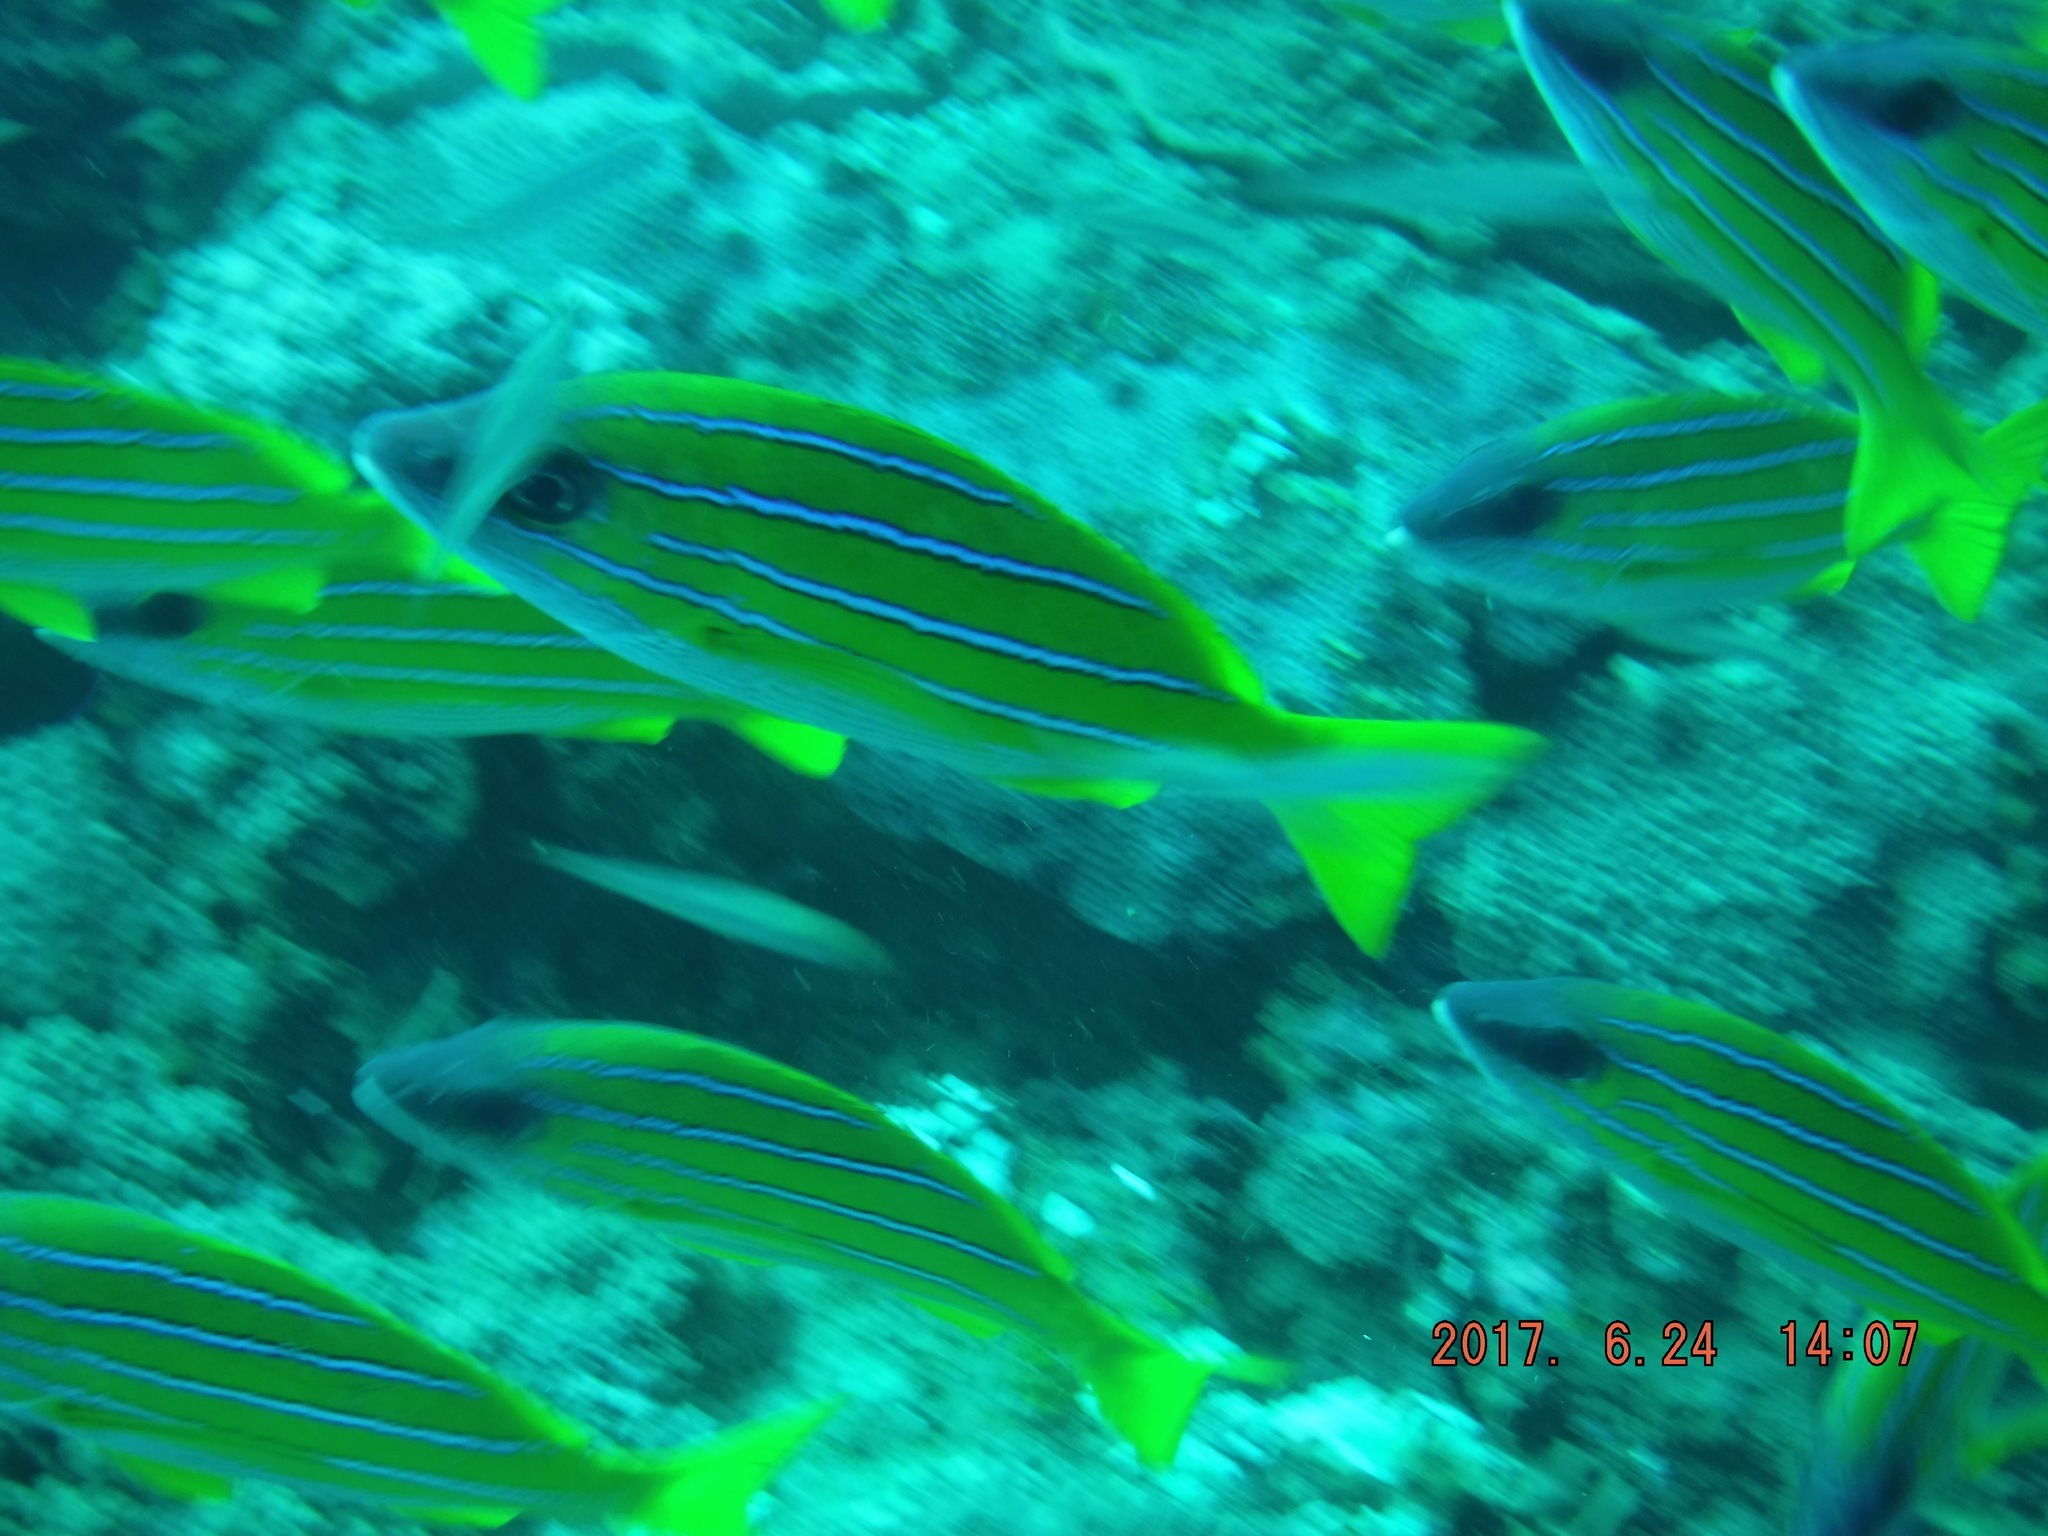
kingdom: Animalia
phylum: Chordata
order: Perciformes
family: Lutjanidae
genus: Lutjanus
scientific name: Lutjanus kasmira
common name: Common bluestripe snapper
